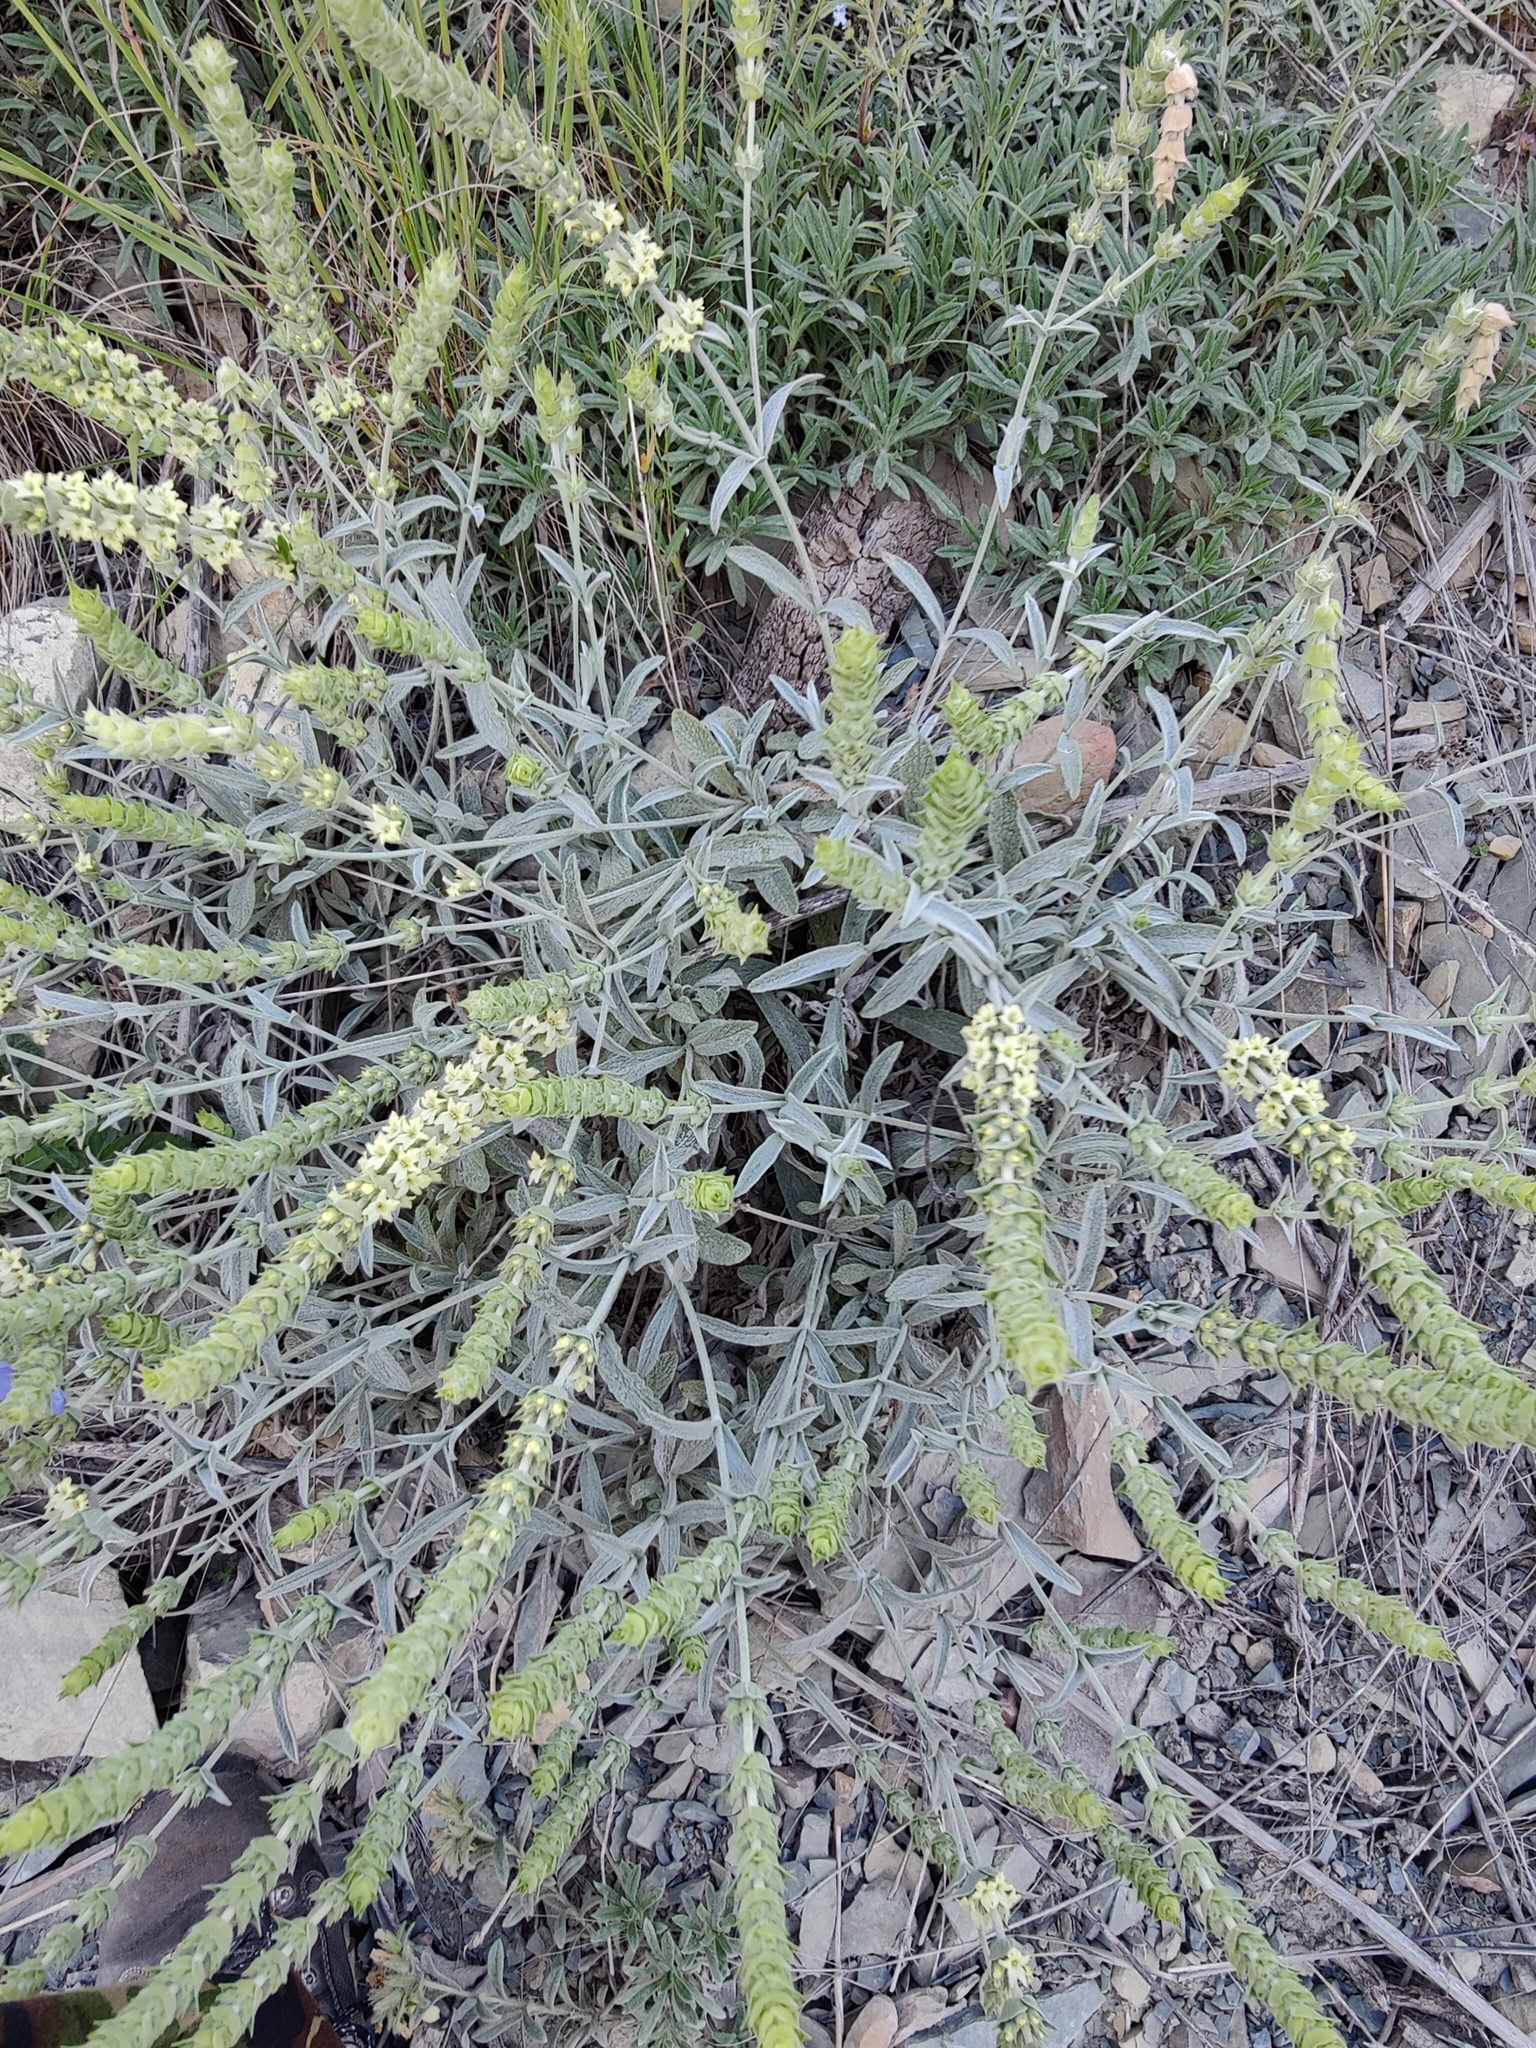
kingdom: Plantae
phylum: Tracheophyta
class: Magnoliopsida
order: Lamiales
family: Lamiaceae
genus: Sideritis
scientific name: Sideritis euxina
